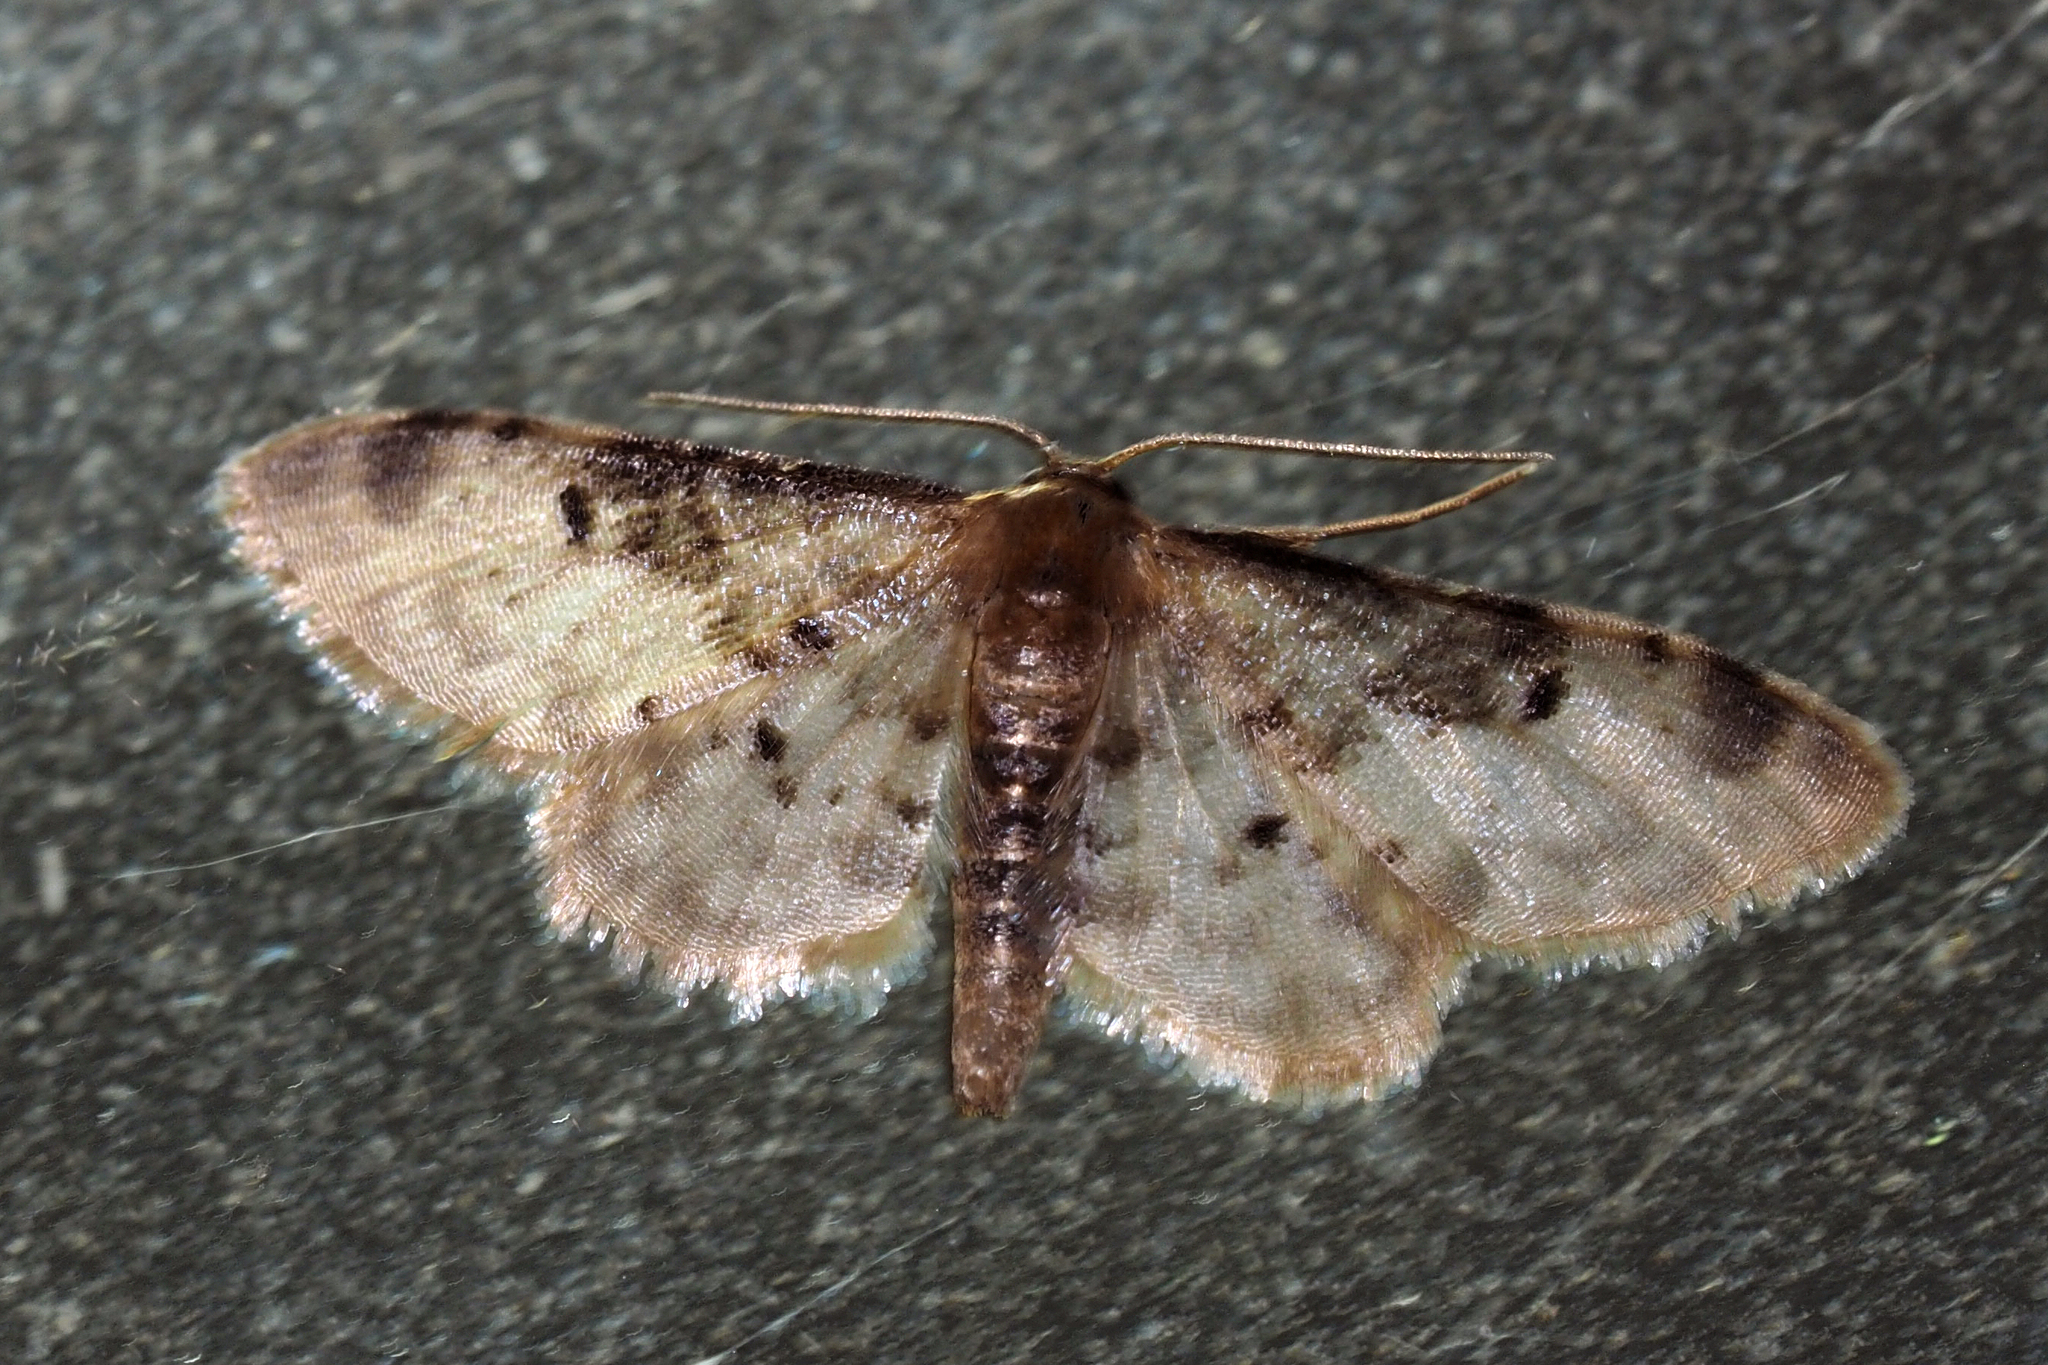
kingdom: Animalia
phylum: Arthropoda
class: Insecta
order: Lepidoptera
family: Geometridae
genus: Idaea
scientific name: Idaea filicata
